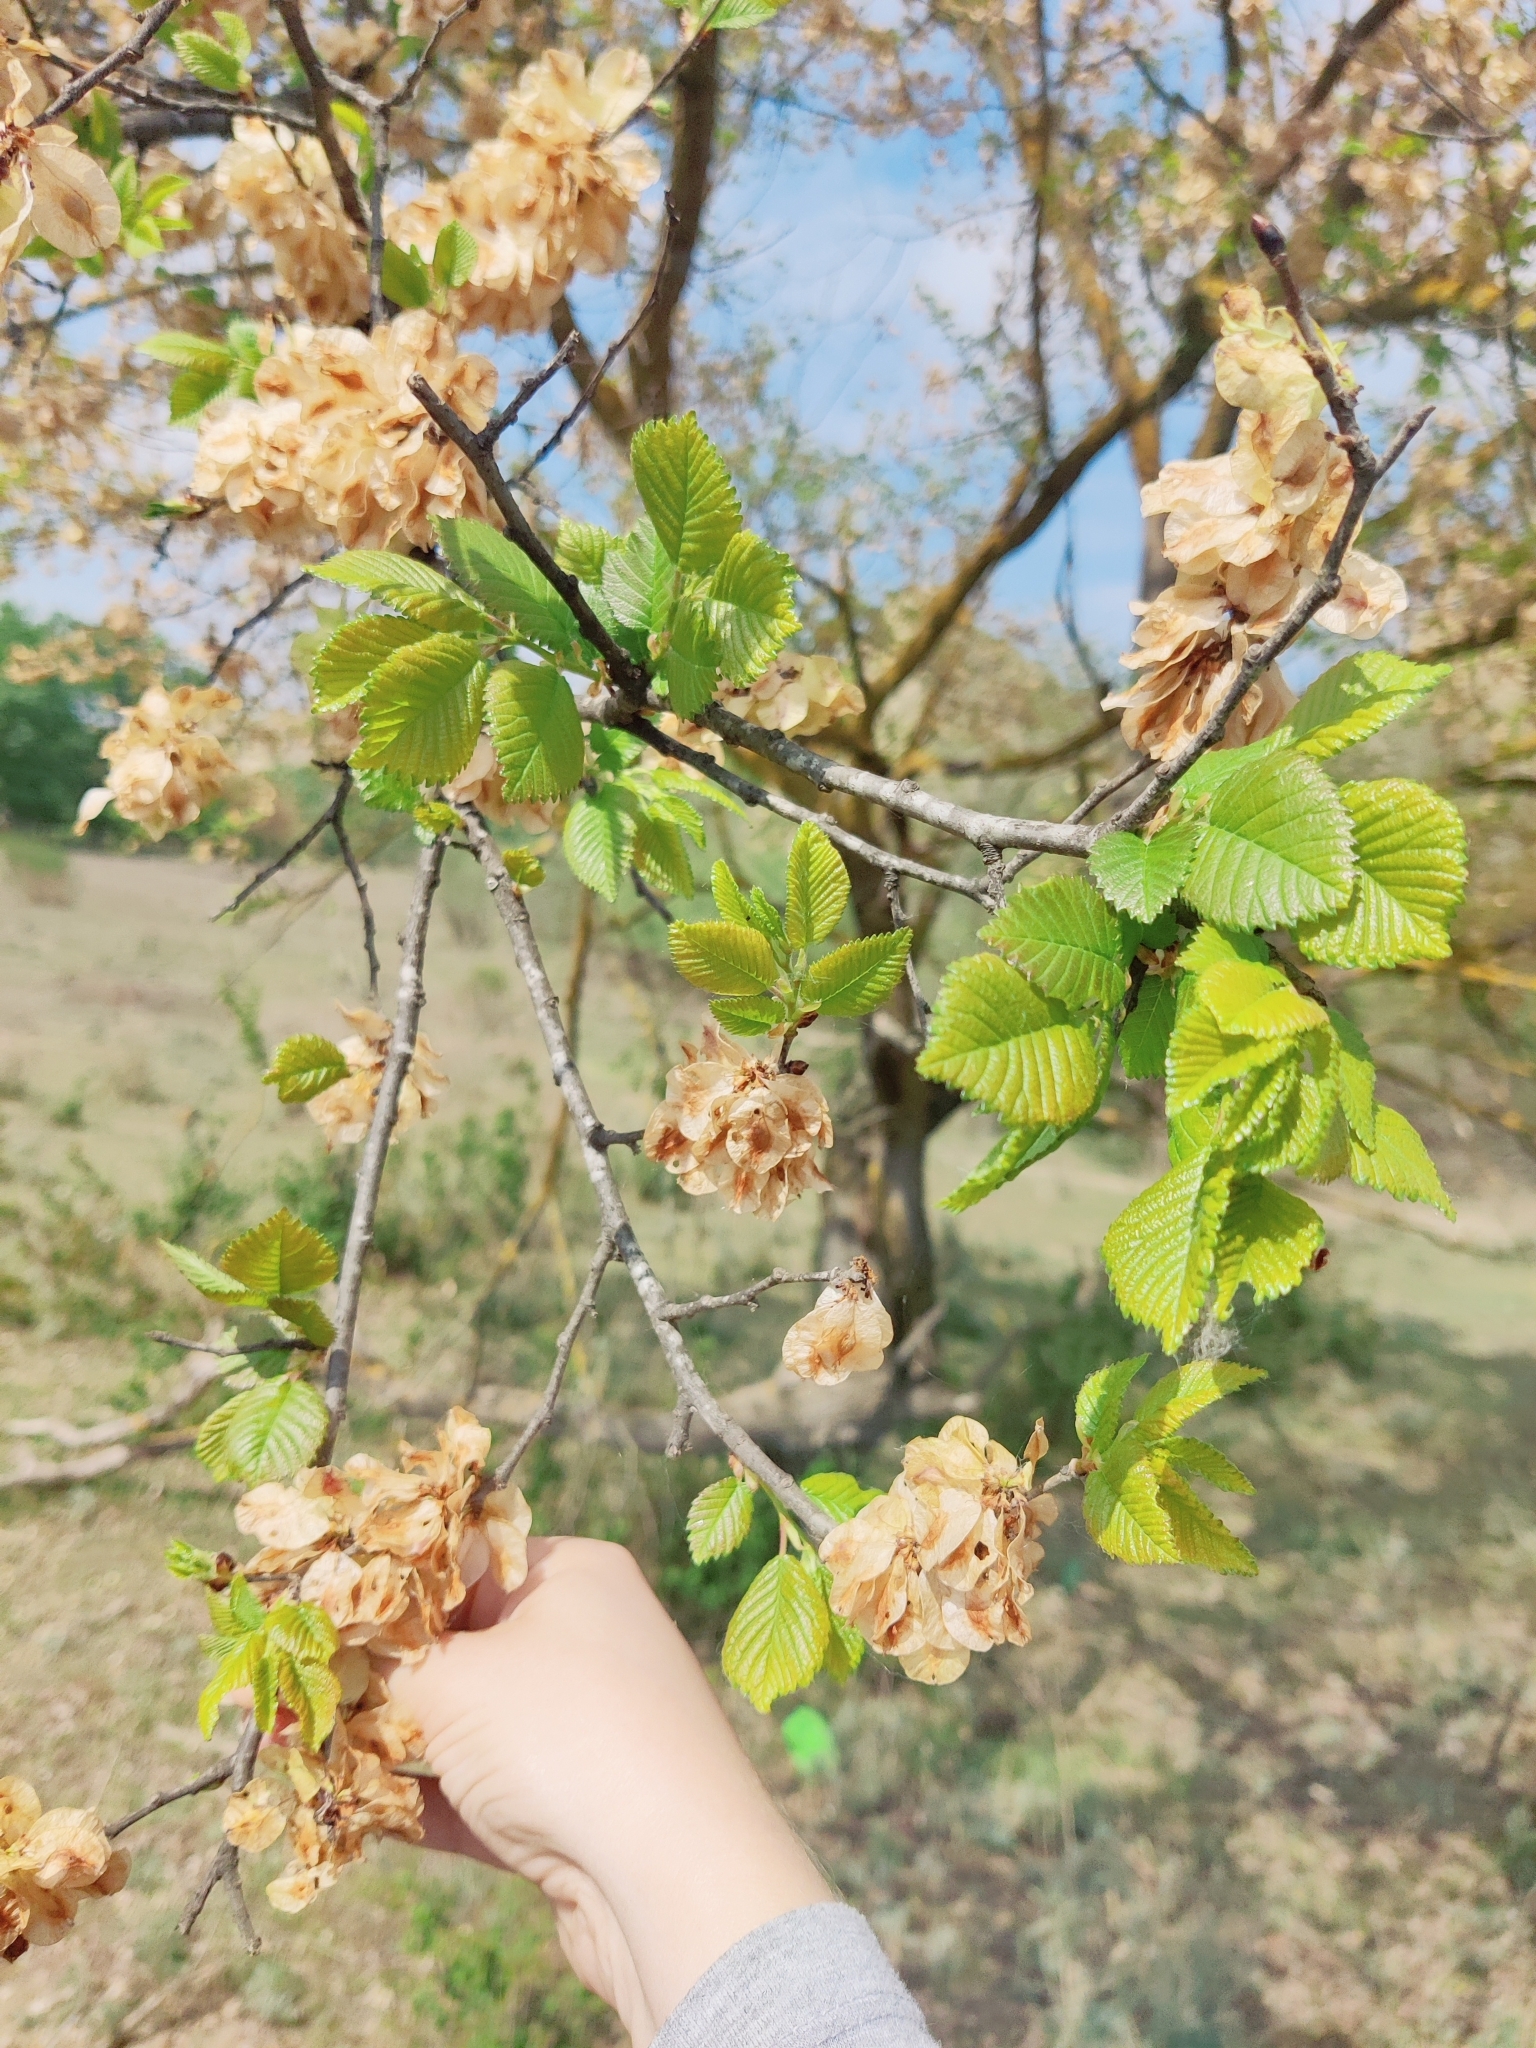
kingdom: Plantae
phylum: Tracheophyta
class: Magnoliopsida
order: Rosales
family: Ulmaceae
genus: Ulmus
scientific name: Ulmus minor
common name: Small-leaved elm
